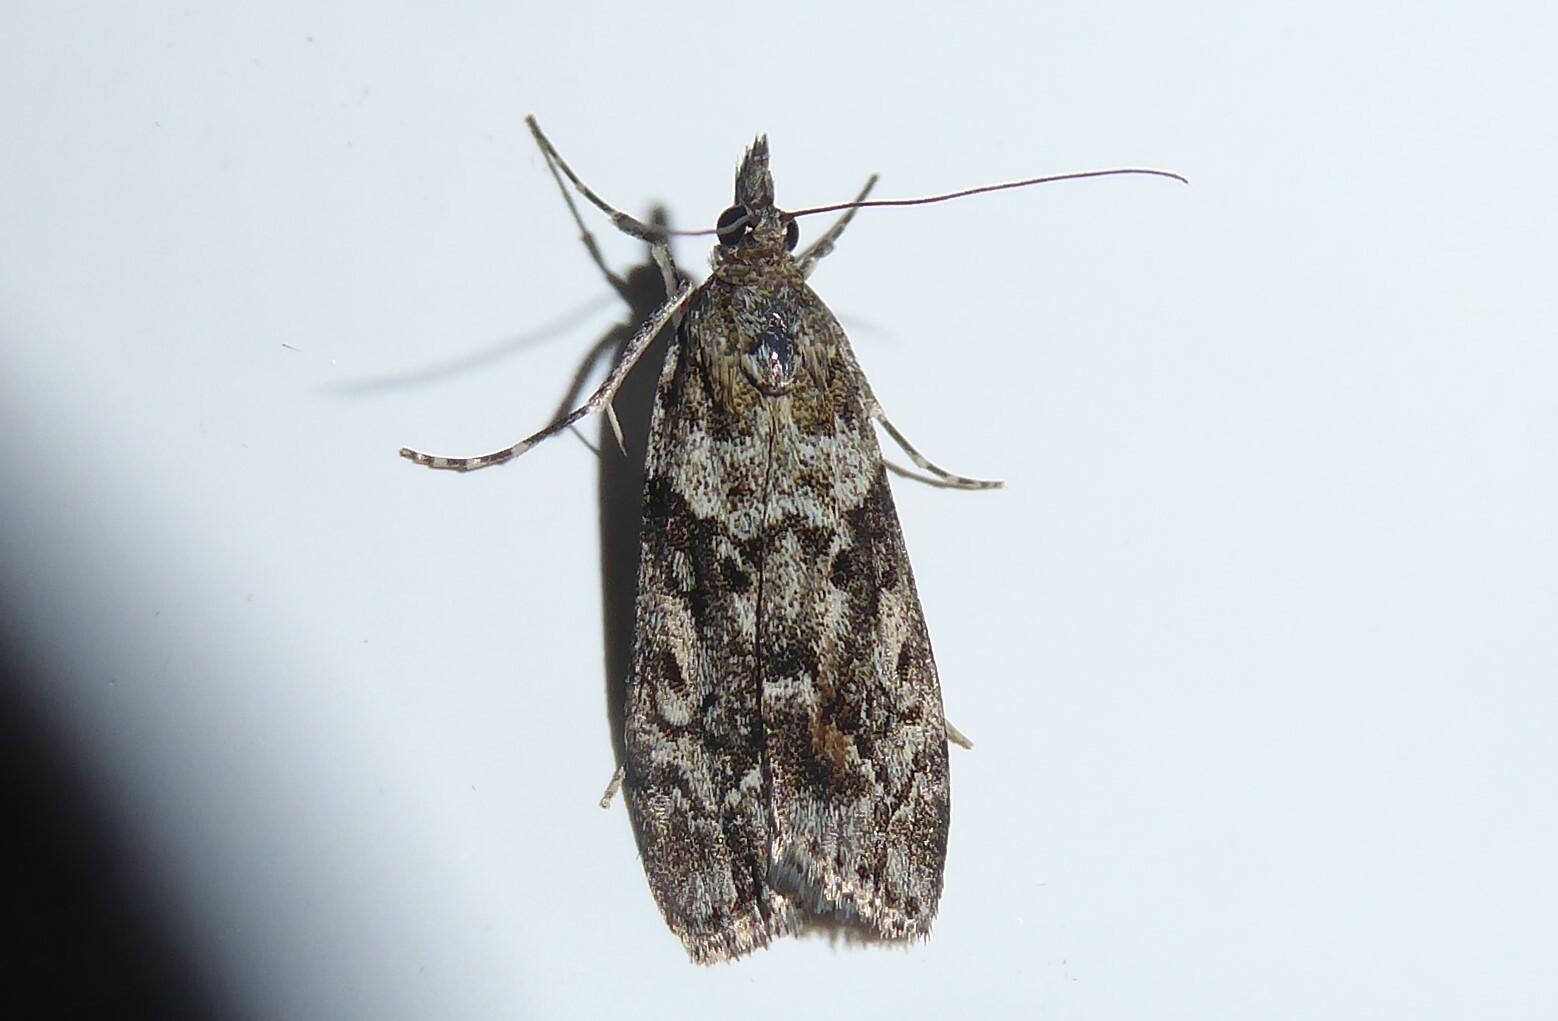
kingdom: Animalia
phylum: Arthropoda
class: Insecta
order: Lepidoptera
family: Crambidae
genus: Eudonia
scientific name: Eudonia submarginalis
